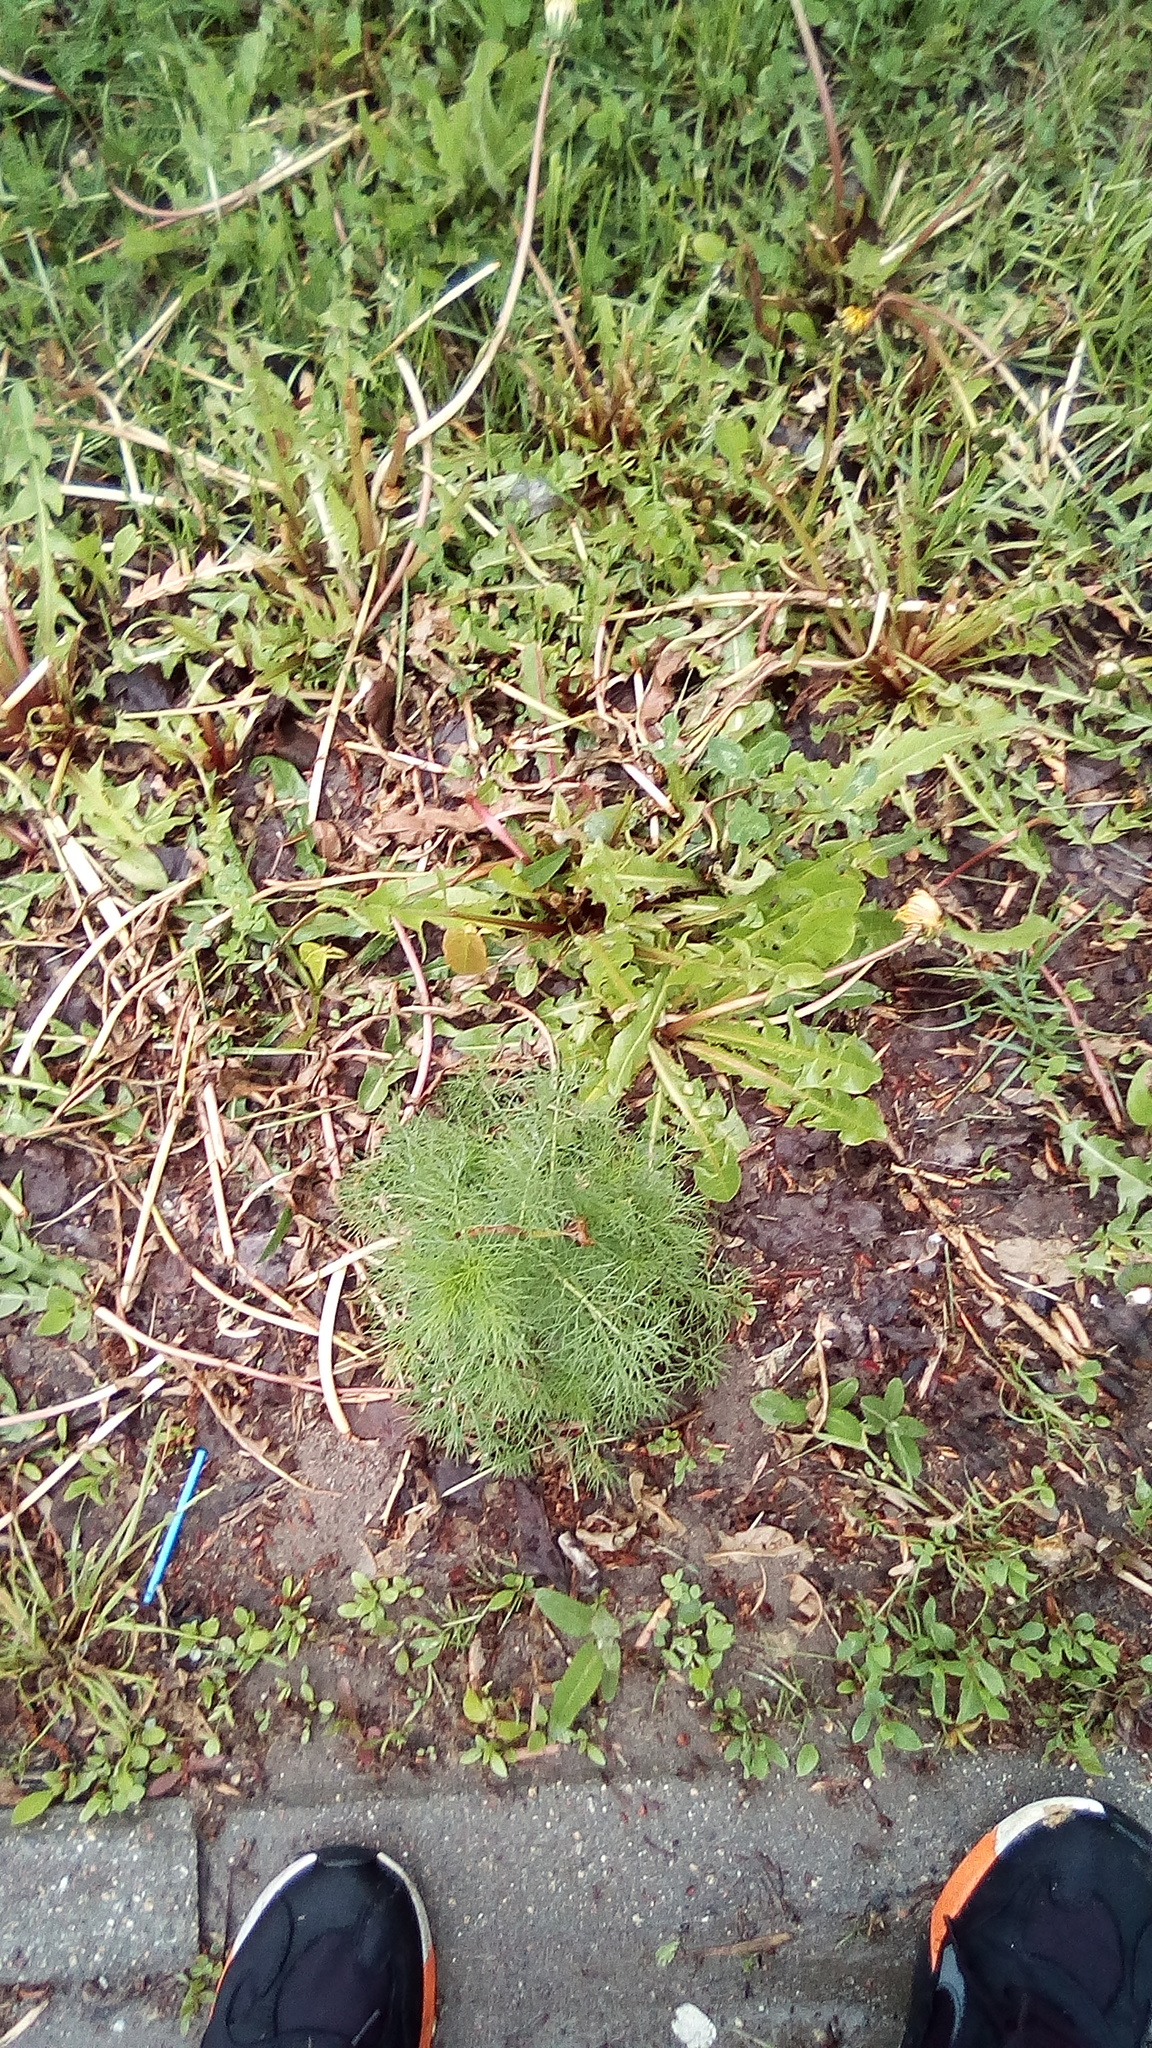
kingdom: Plantae
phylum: Tracheophyta
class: Magnoliopsida
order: Asterales
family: Asteraceae
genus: Tripleurospermum
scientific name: Tripleurospermum inodorum
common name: Scentless mayweed
